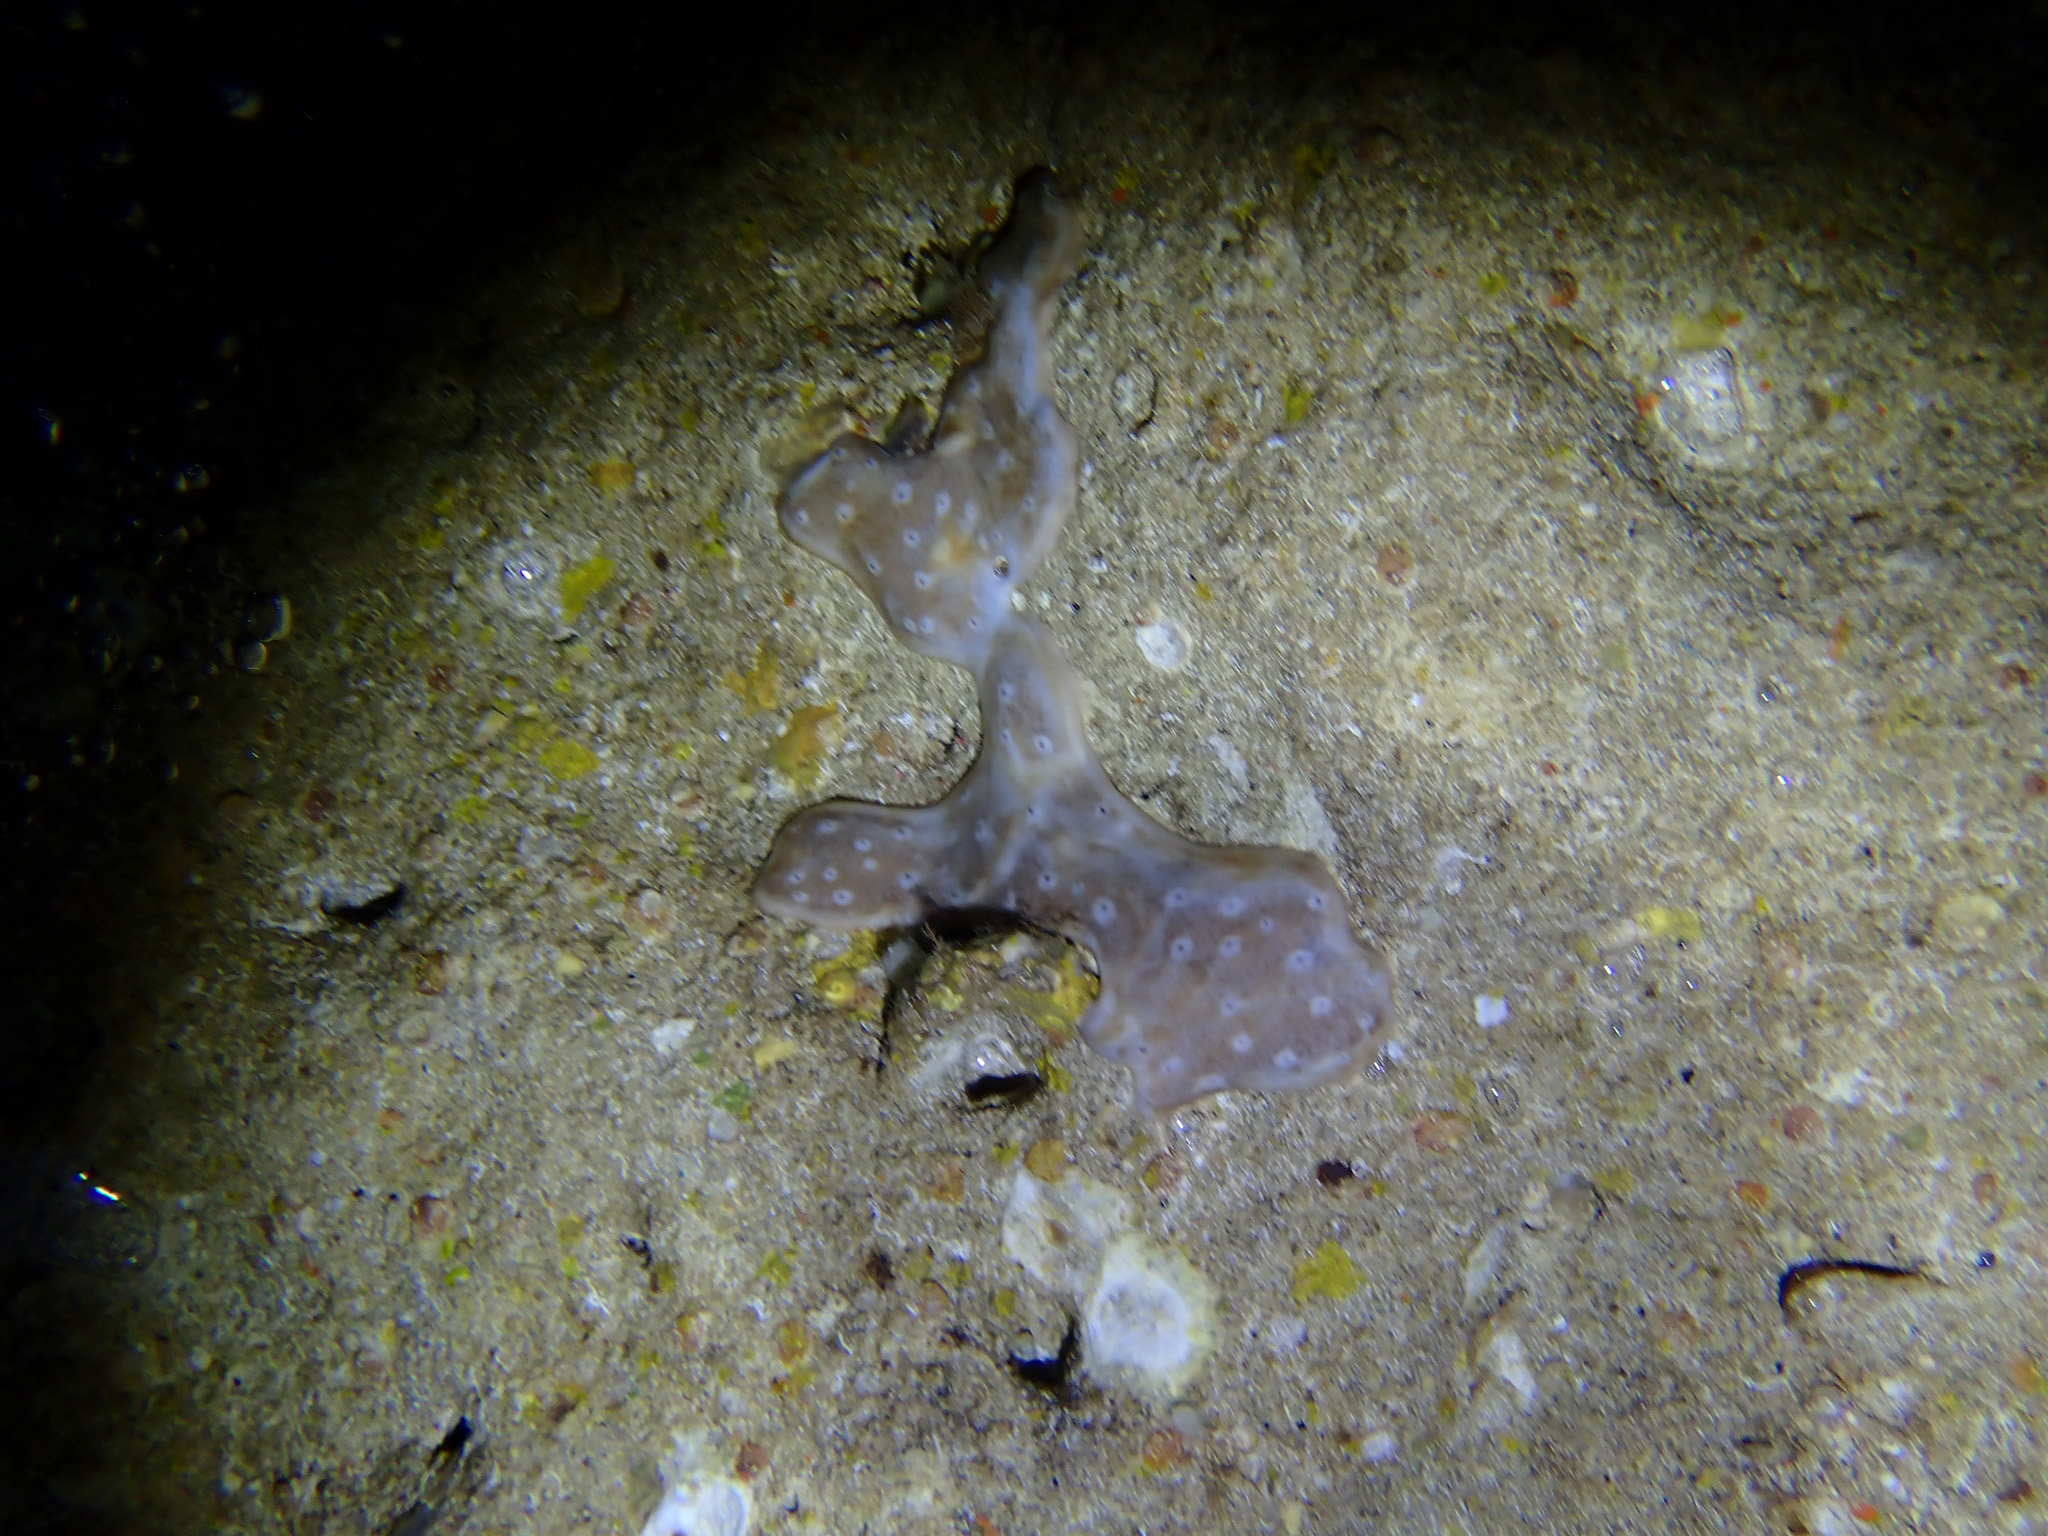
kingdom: Animalia
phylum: Porifera
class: Demospongiae
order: Chondrillida
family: Chondrillidae
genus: Chondrilla
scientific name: Chondrilla australiensis
